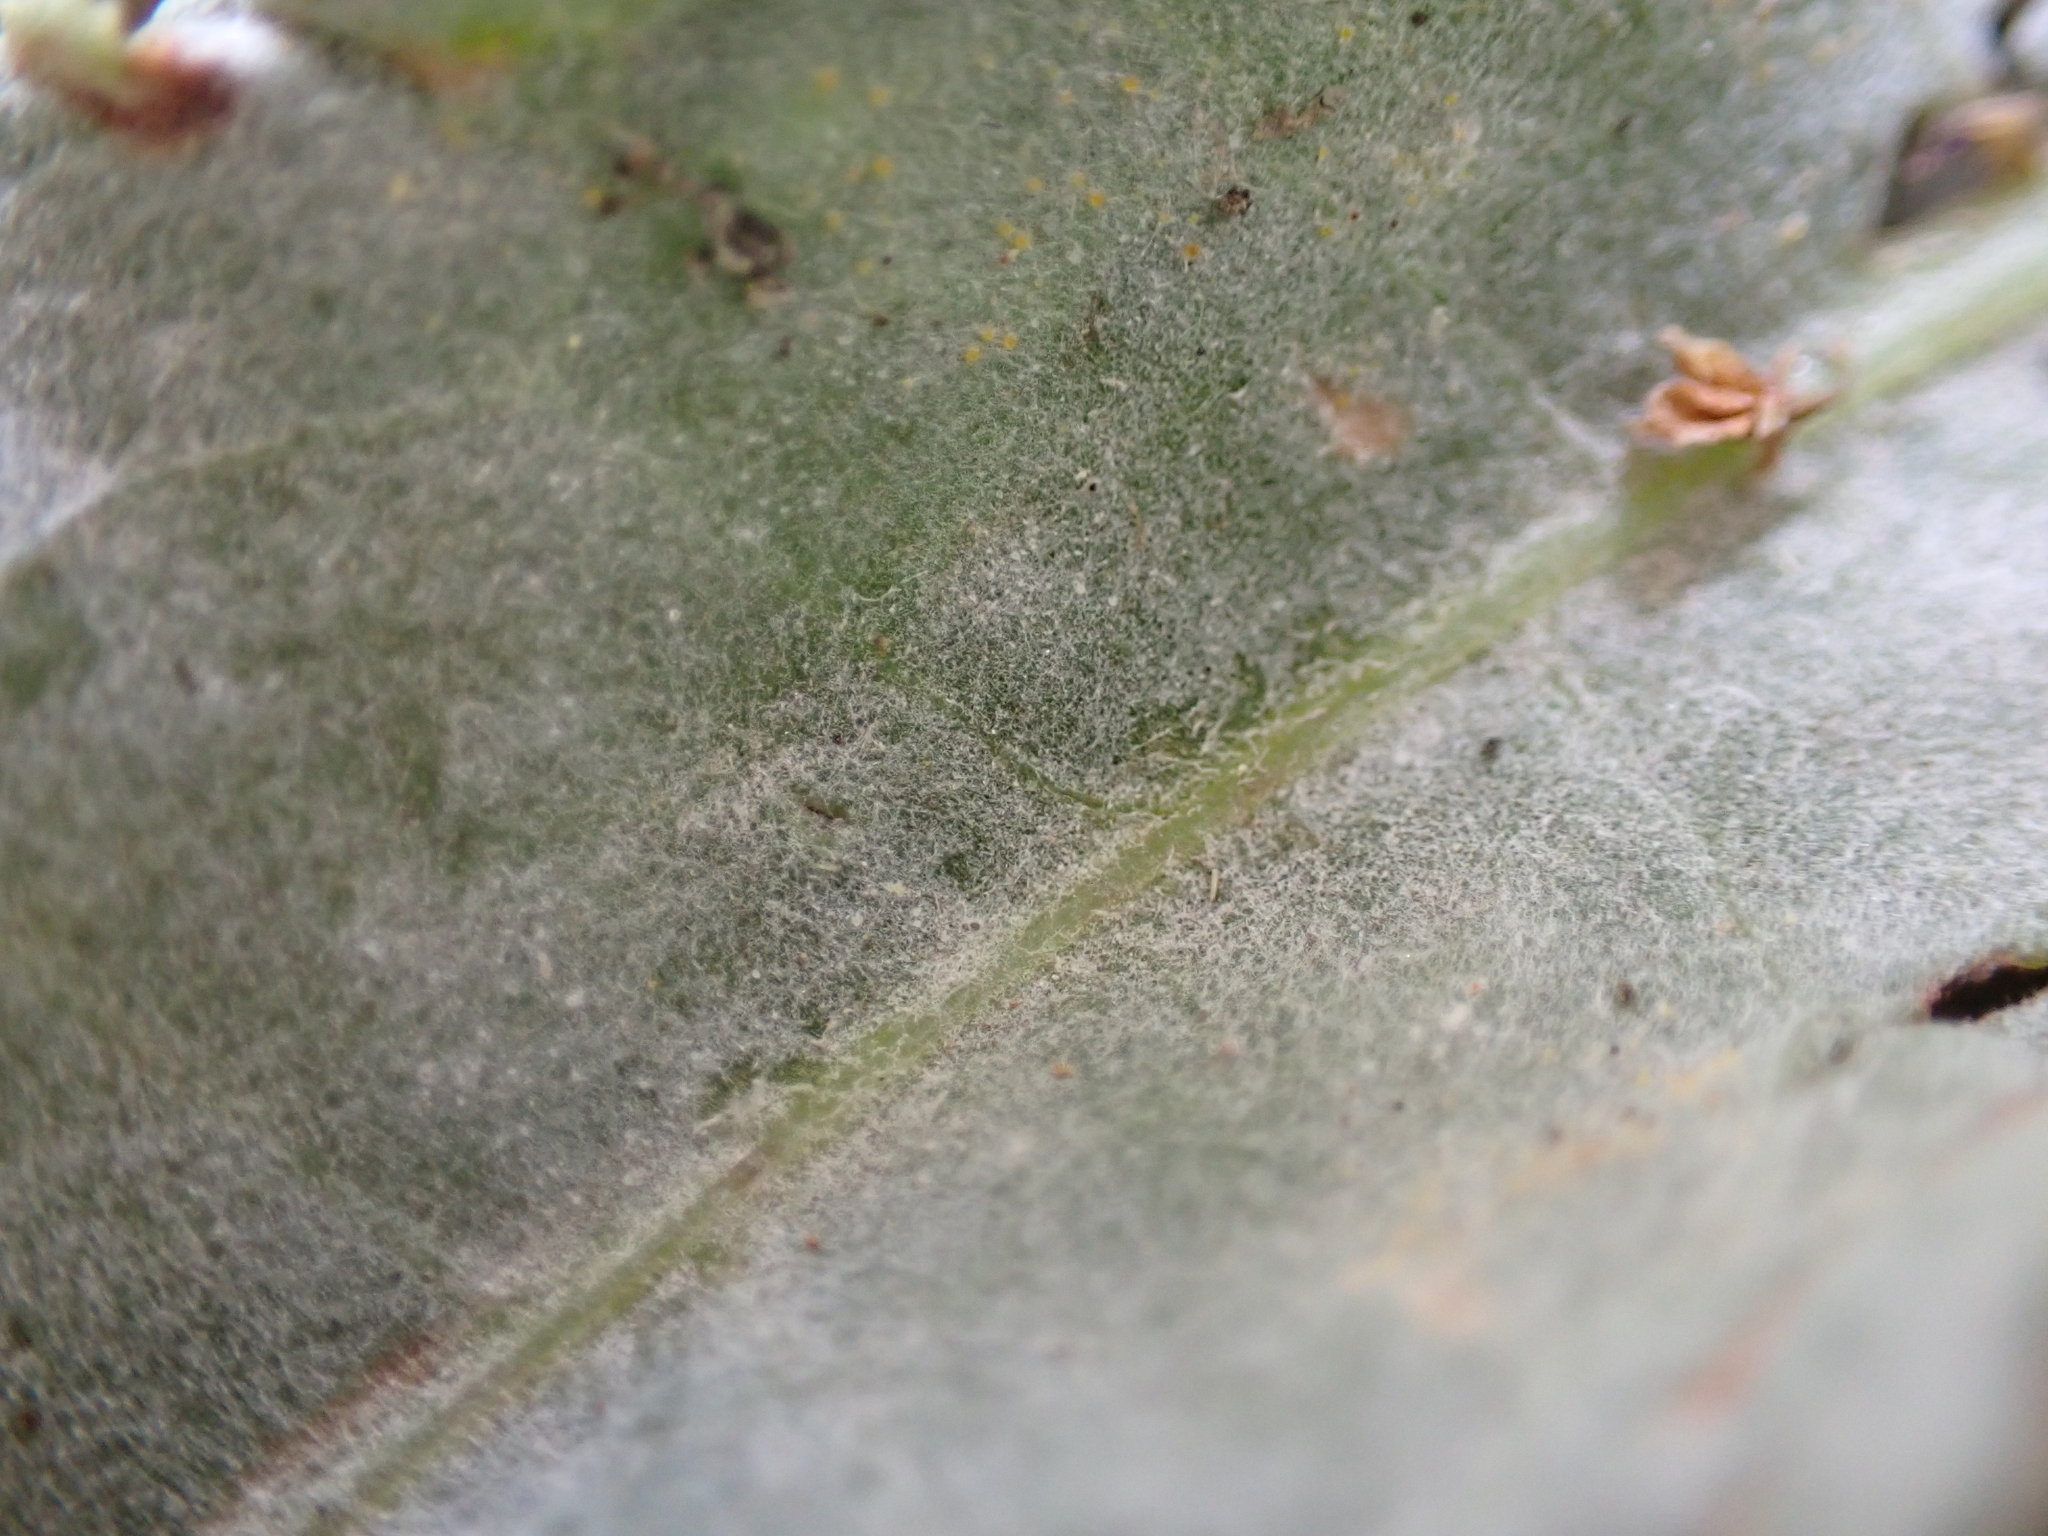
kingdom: Fungi
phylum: Ascomycota
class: Leotiomycetes
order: Helotiales
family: Erysiphaceae
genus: Erysiphe
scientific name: Erysiphe polygoni
